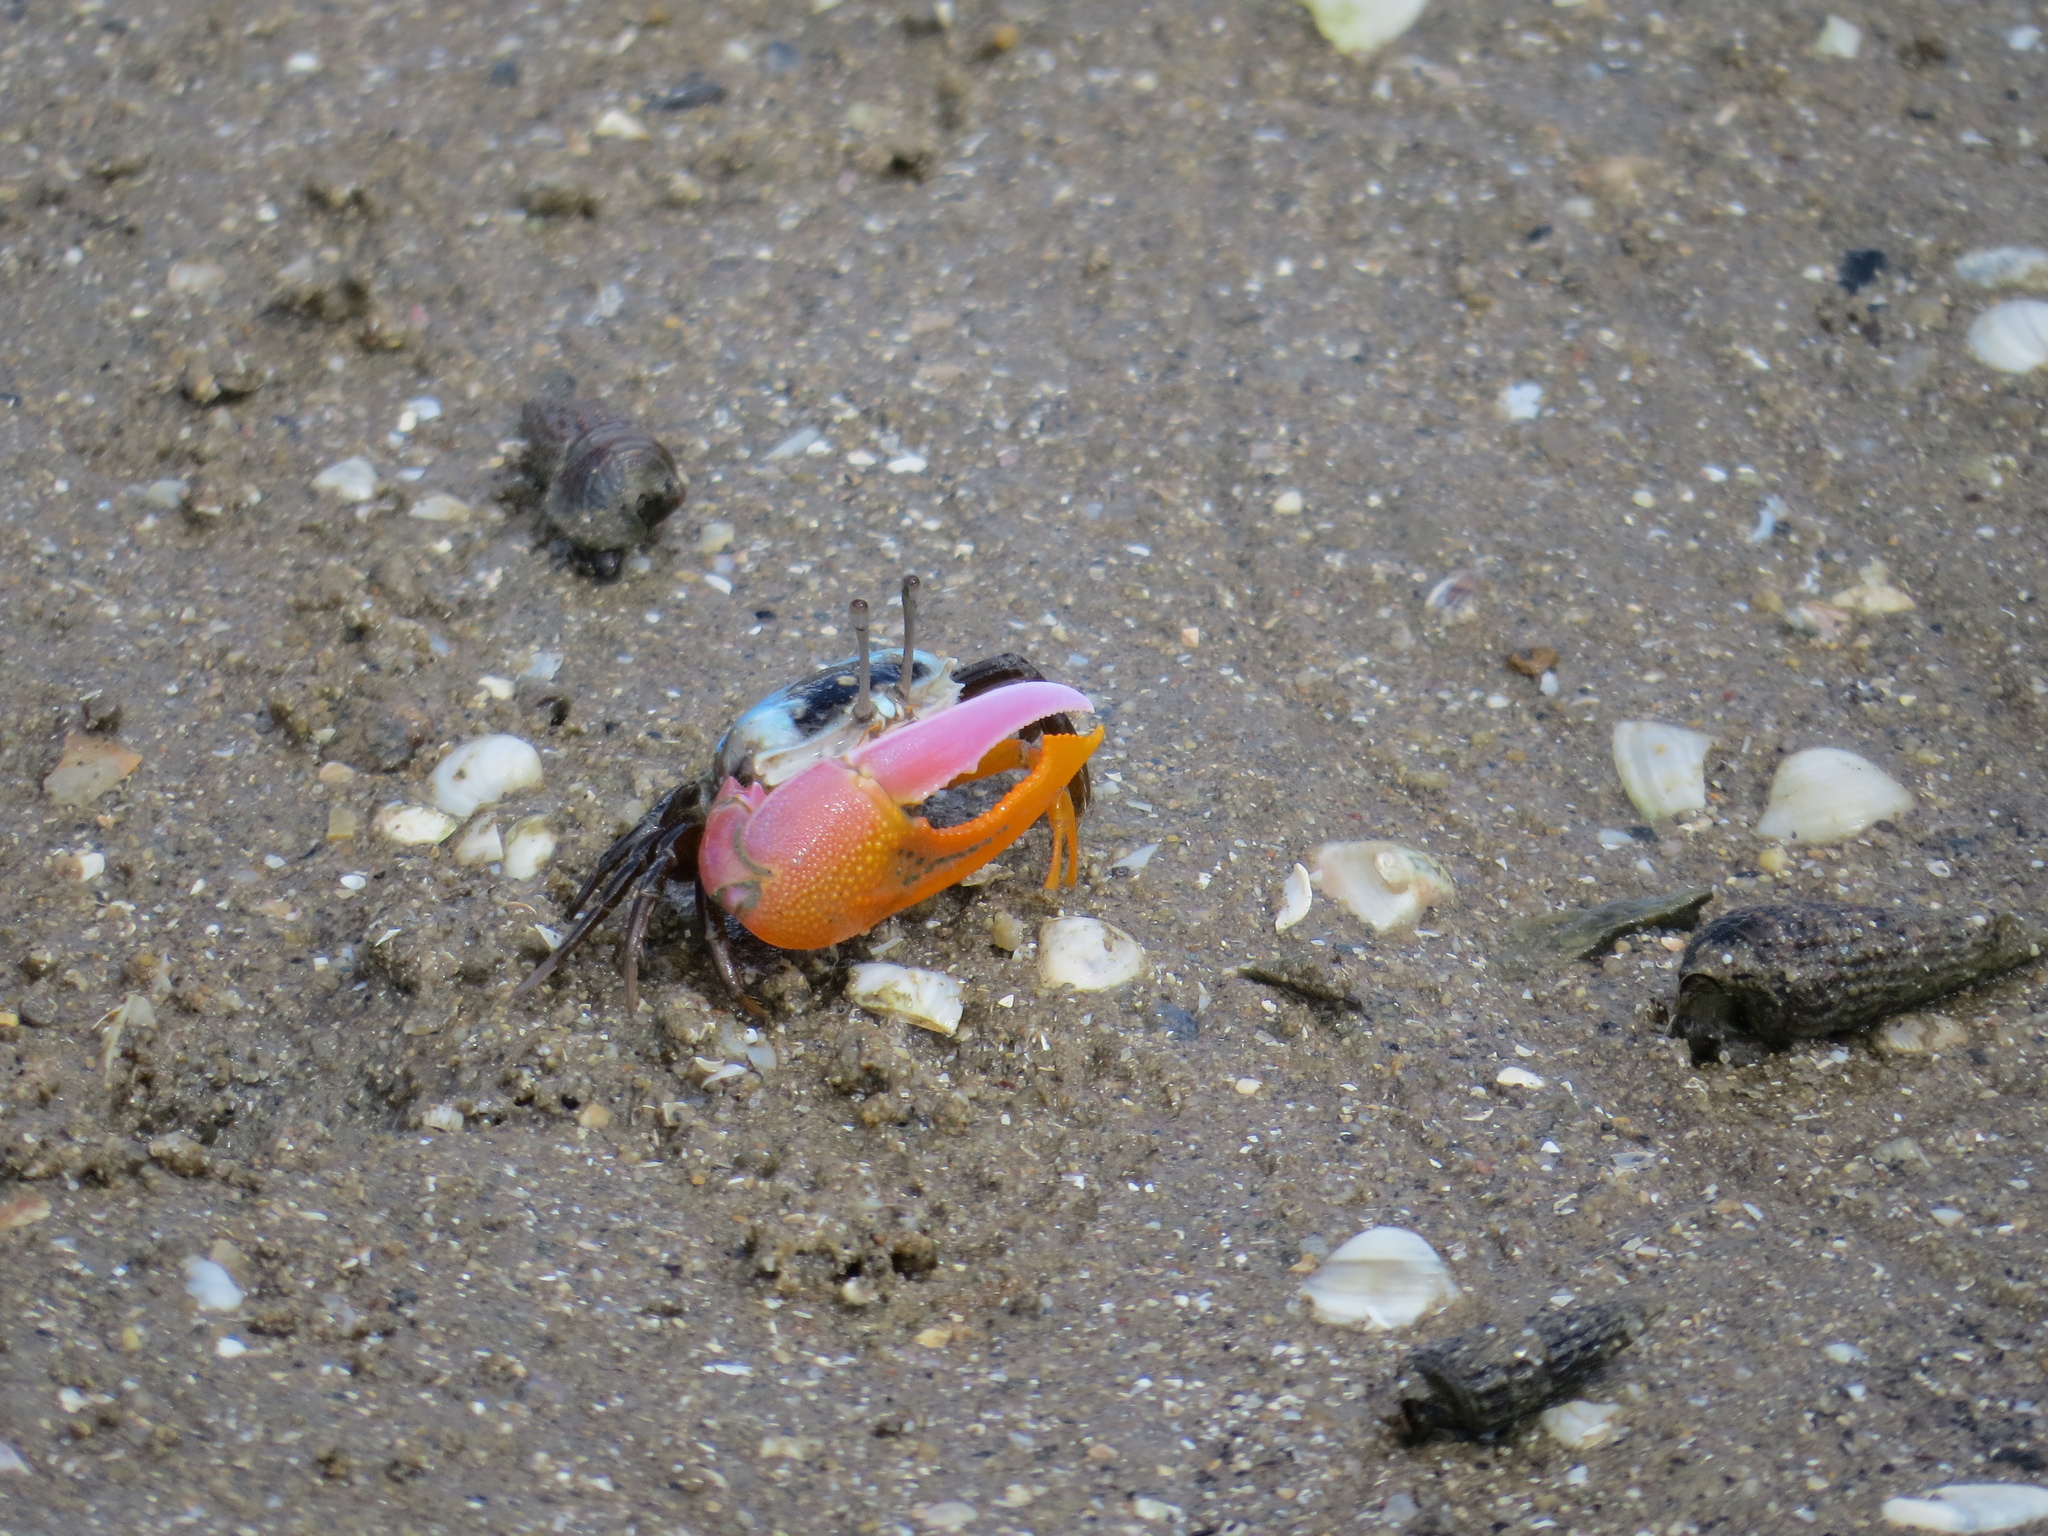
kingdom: Animalia
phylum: Arthropoda
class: Malacostraca
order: Decapoda
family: Ocypodidae
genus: Gelasimus
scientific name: Gelasimus vomeris
